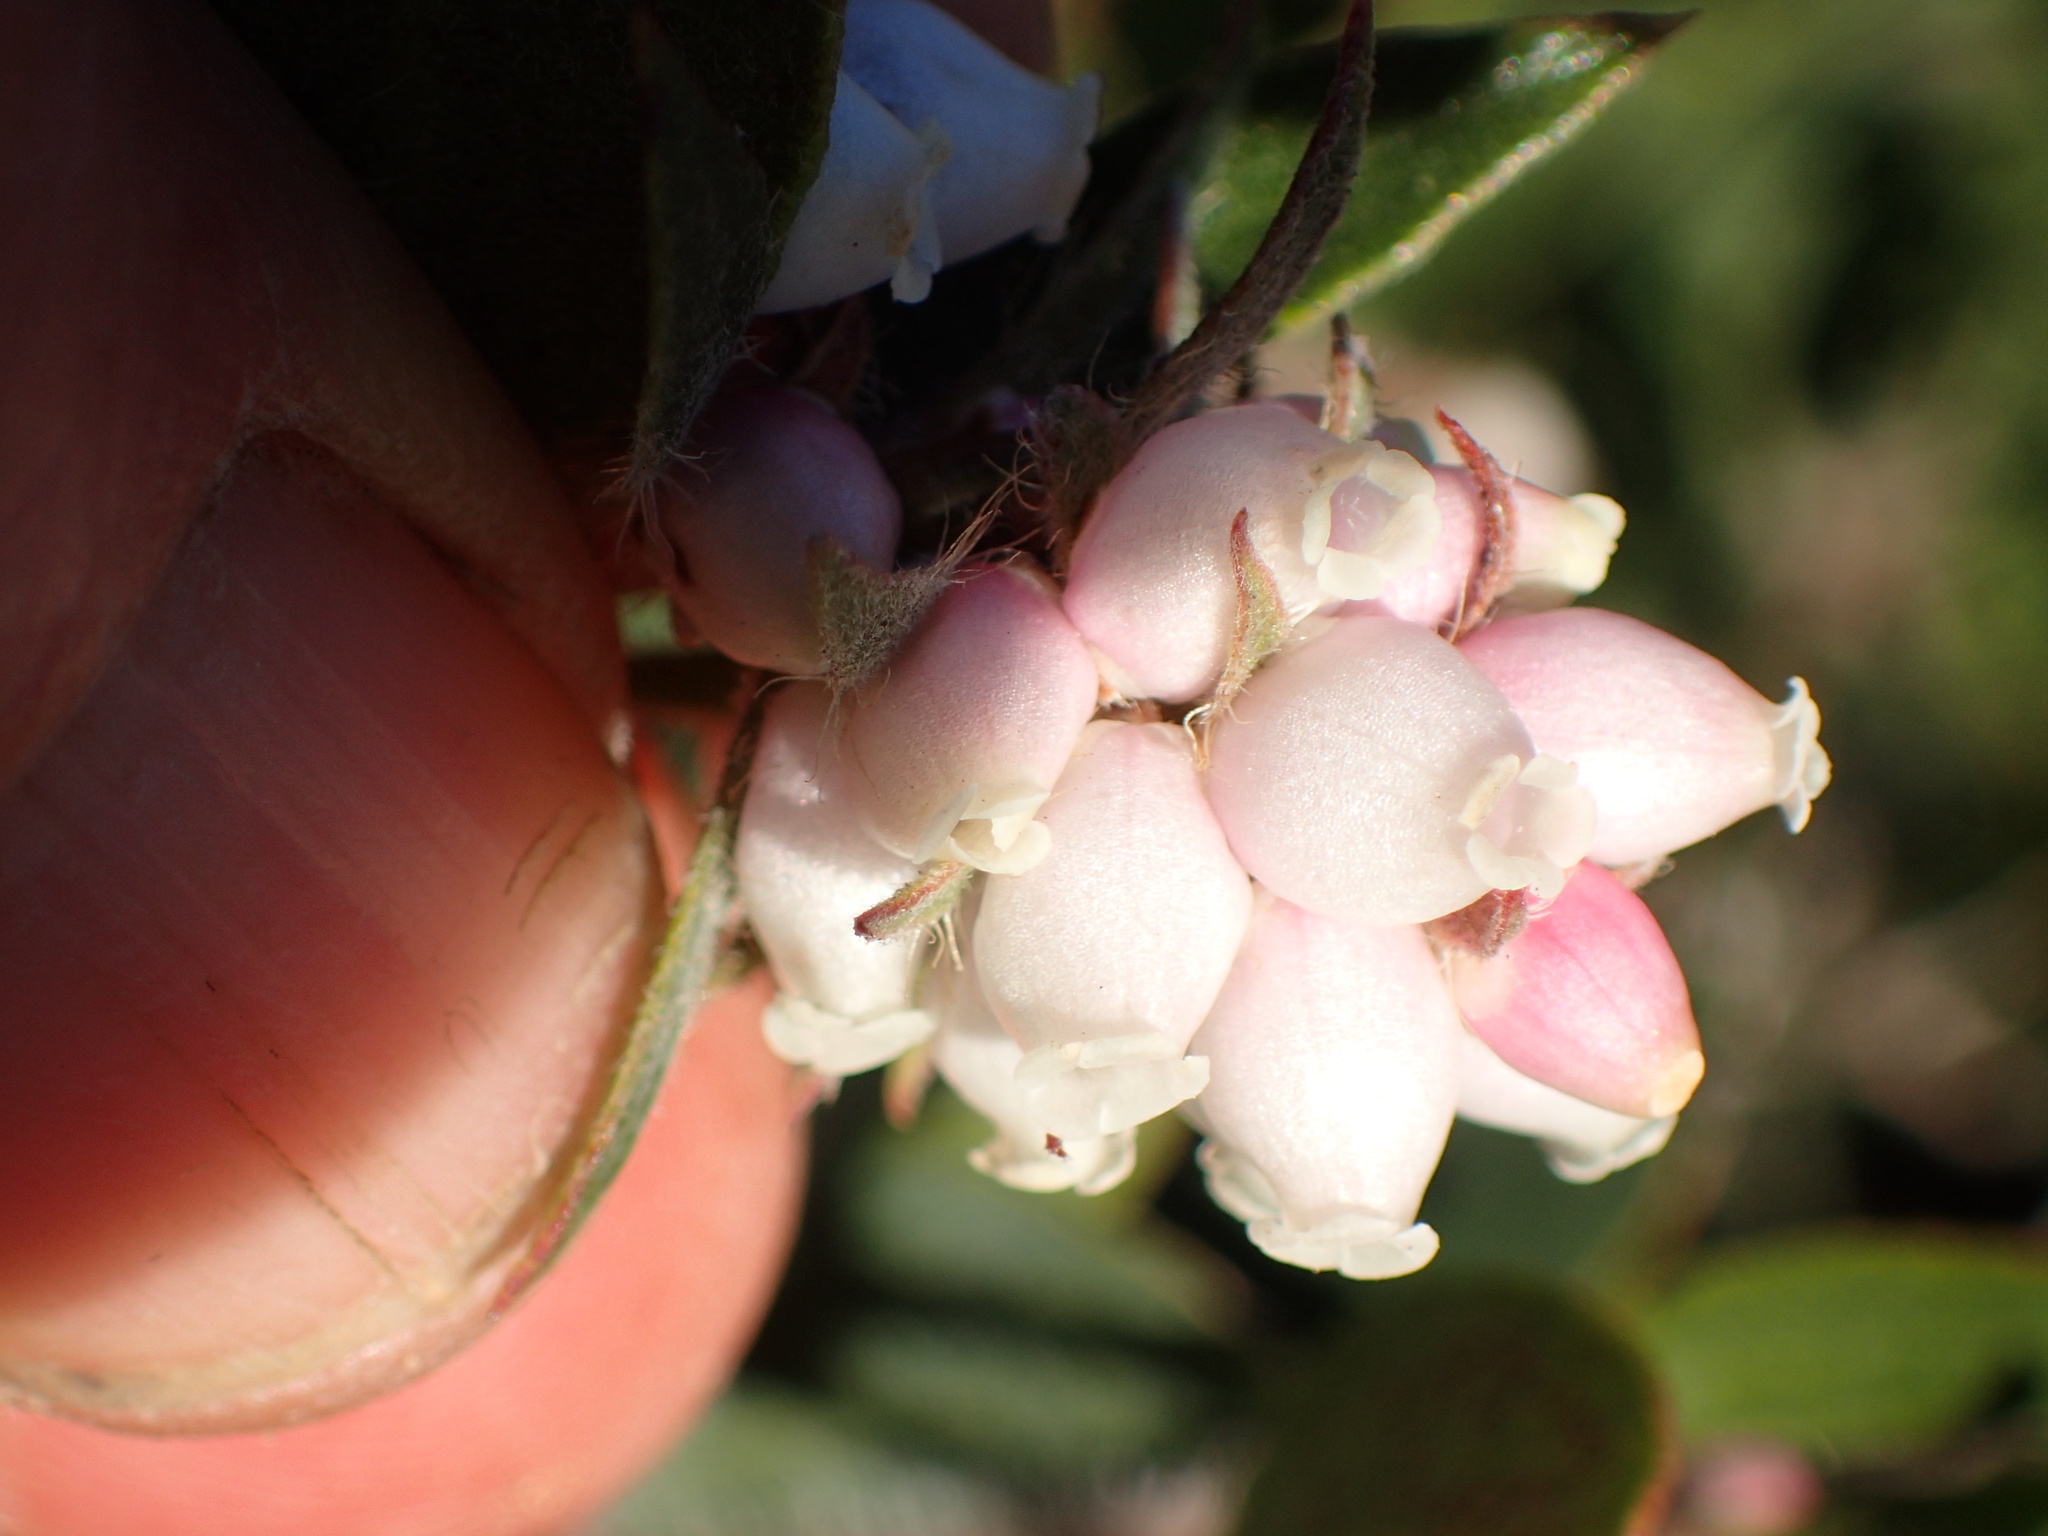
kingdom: Plantae
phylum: Tracheophyta
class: Magnoliopsida
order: Ericales
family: Ericaceae
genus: Arctostaphylos
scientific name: Arctostaphylos crustacea
